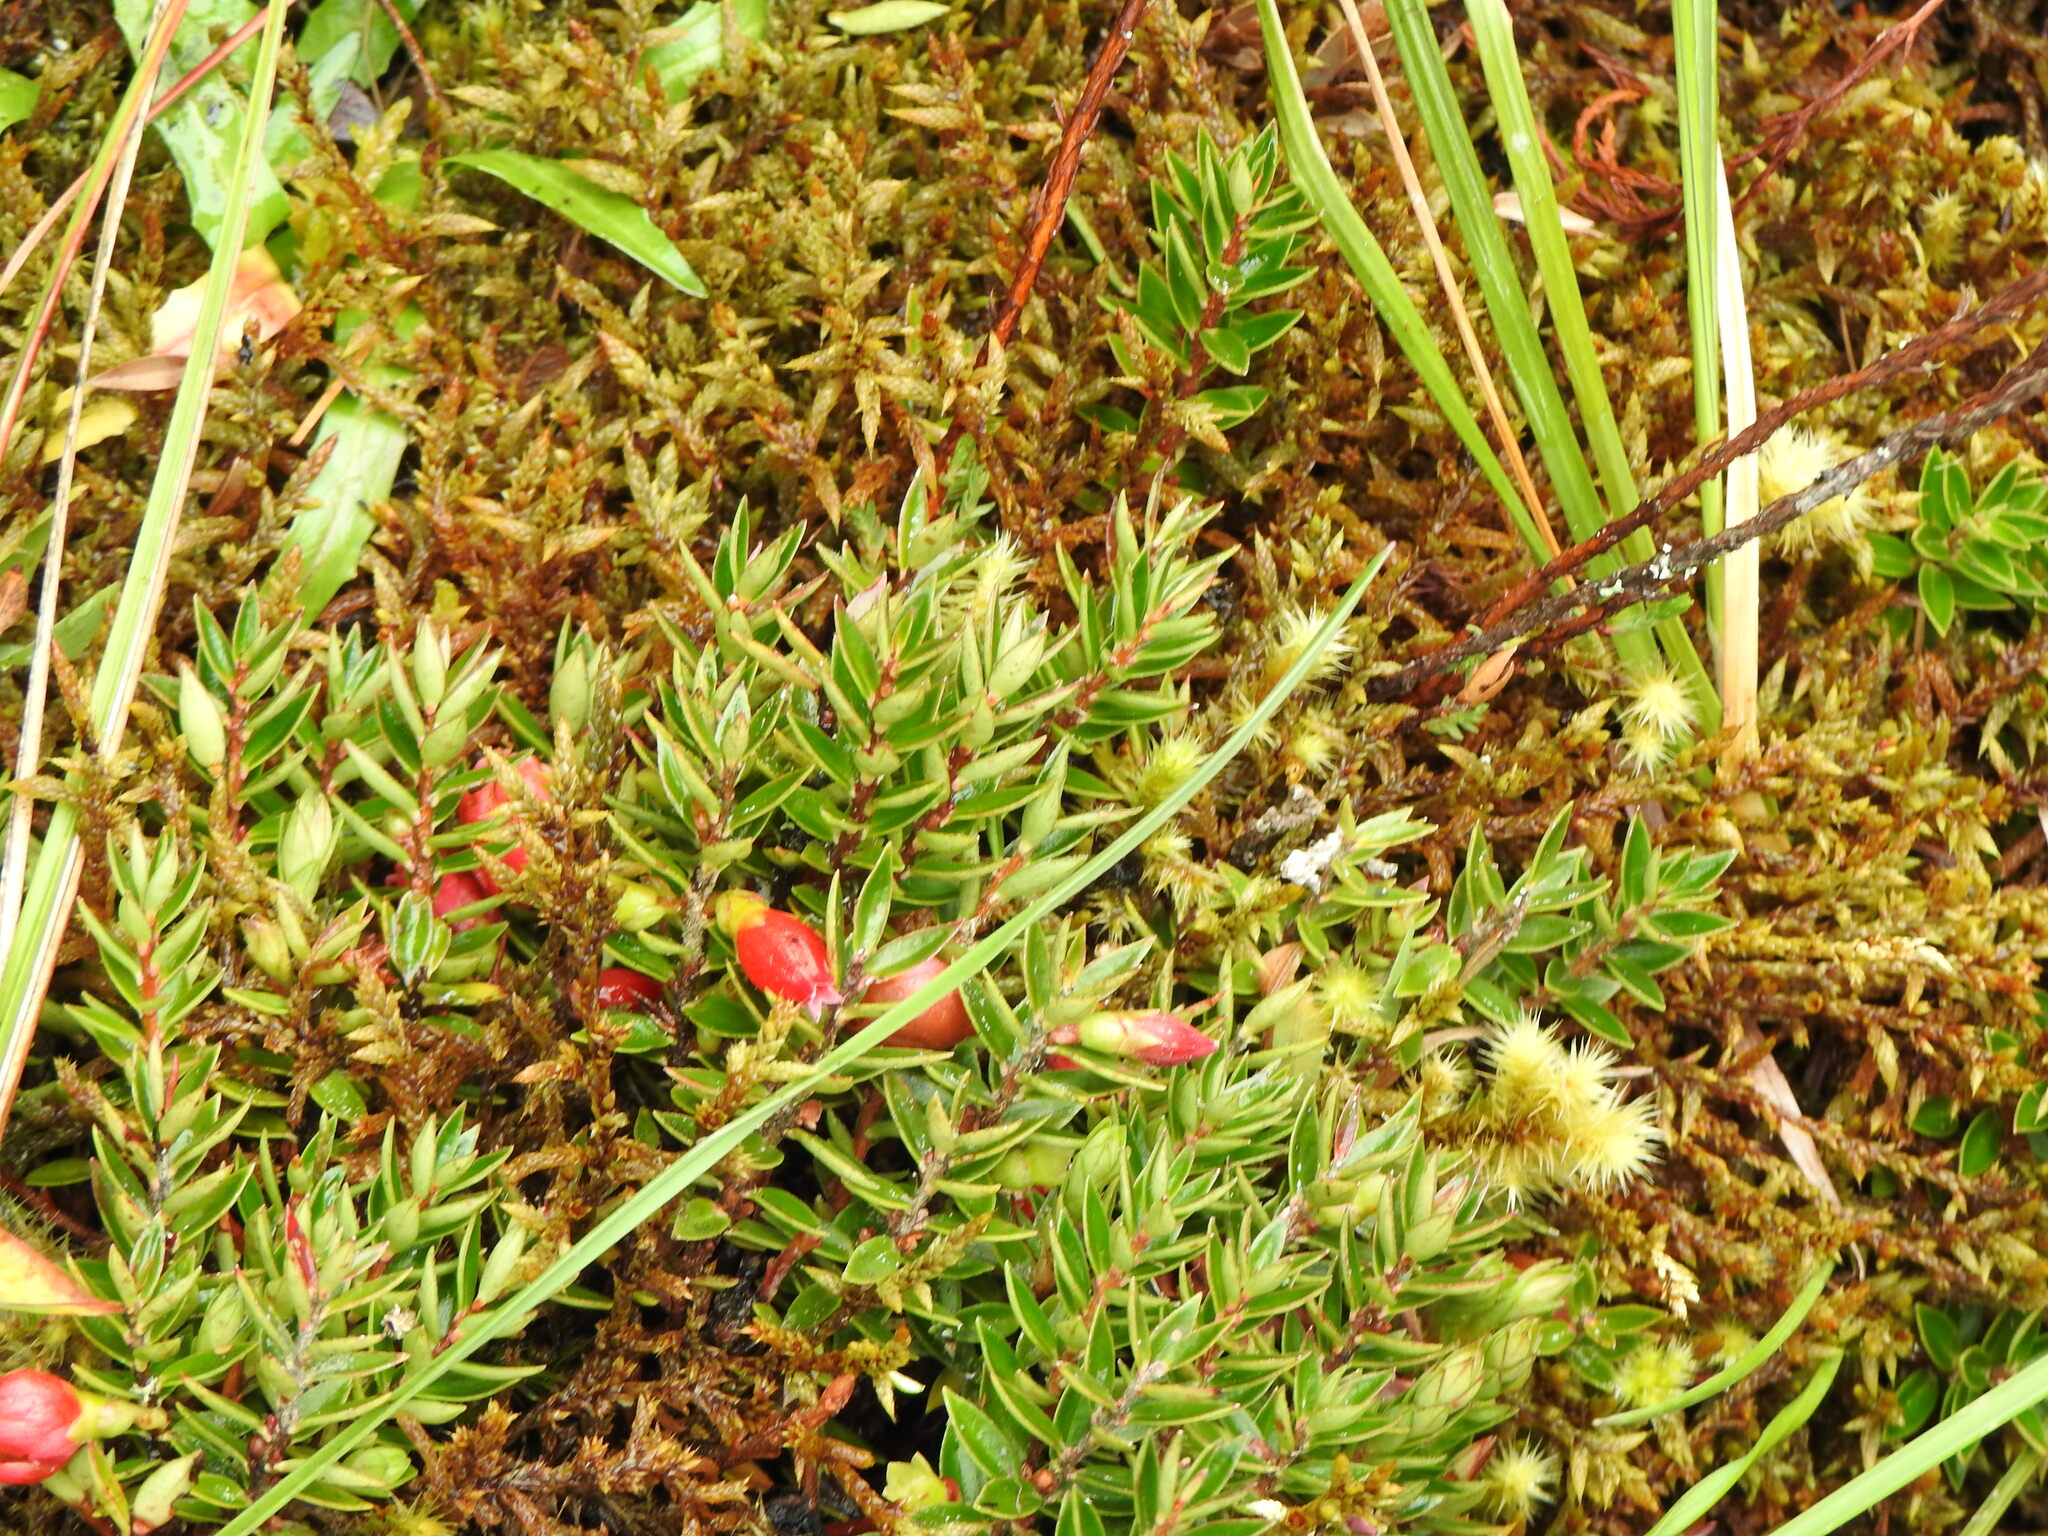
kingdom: Plantae
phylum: Tracheophyta
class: Magnoliopsida
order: Ericales
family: Ericaceae
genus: Disterigma
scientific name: Disterigma empetrifolium
